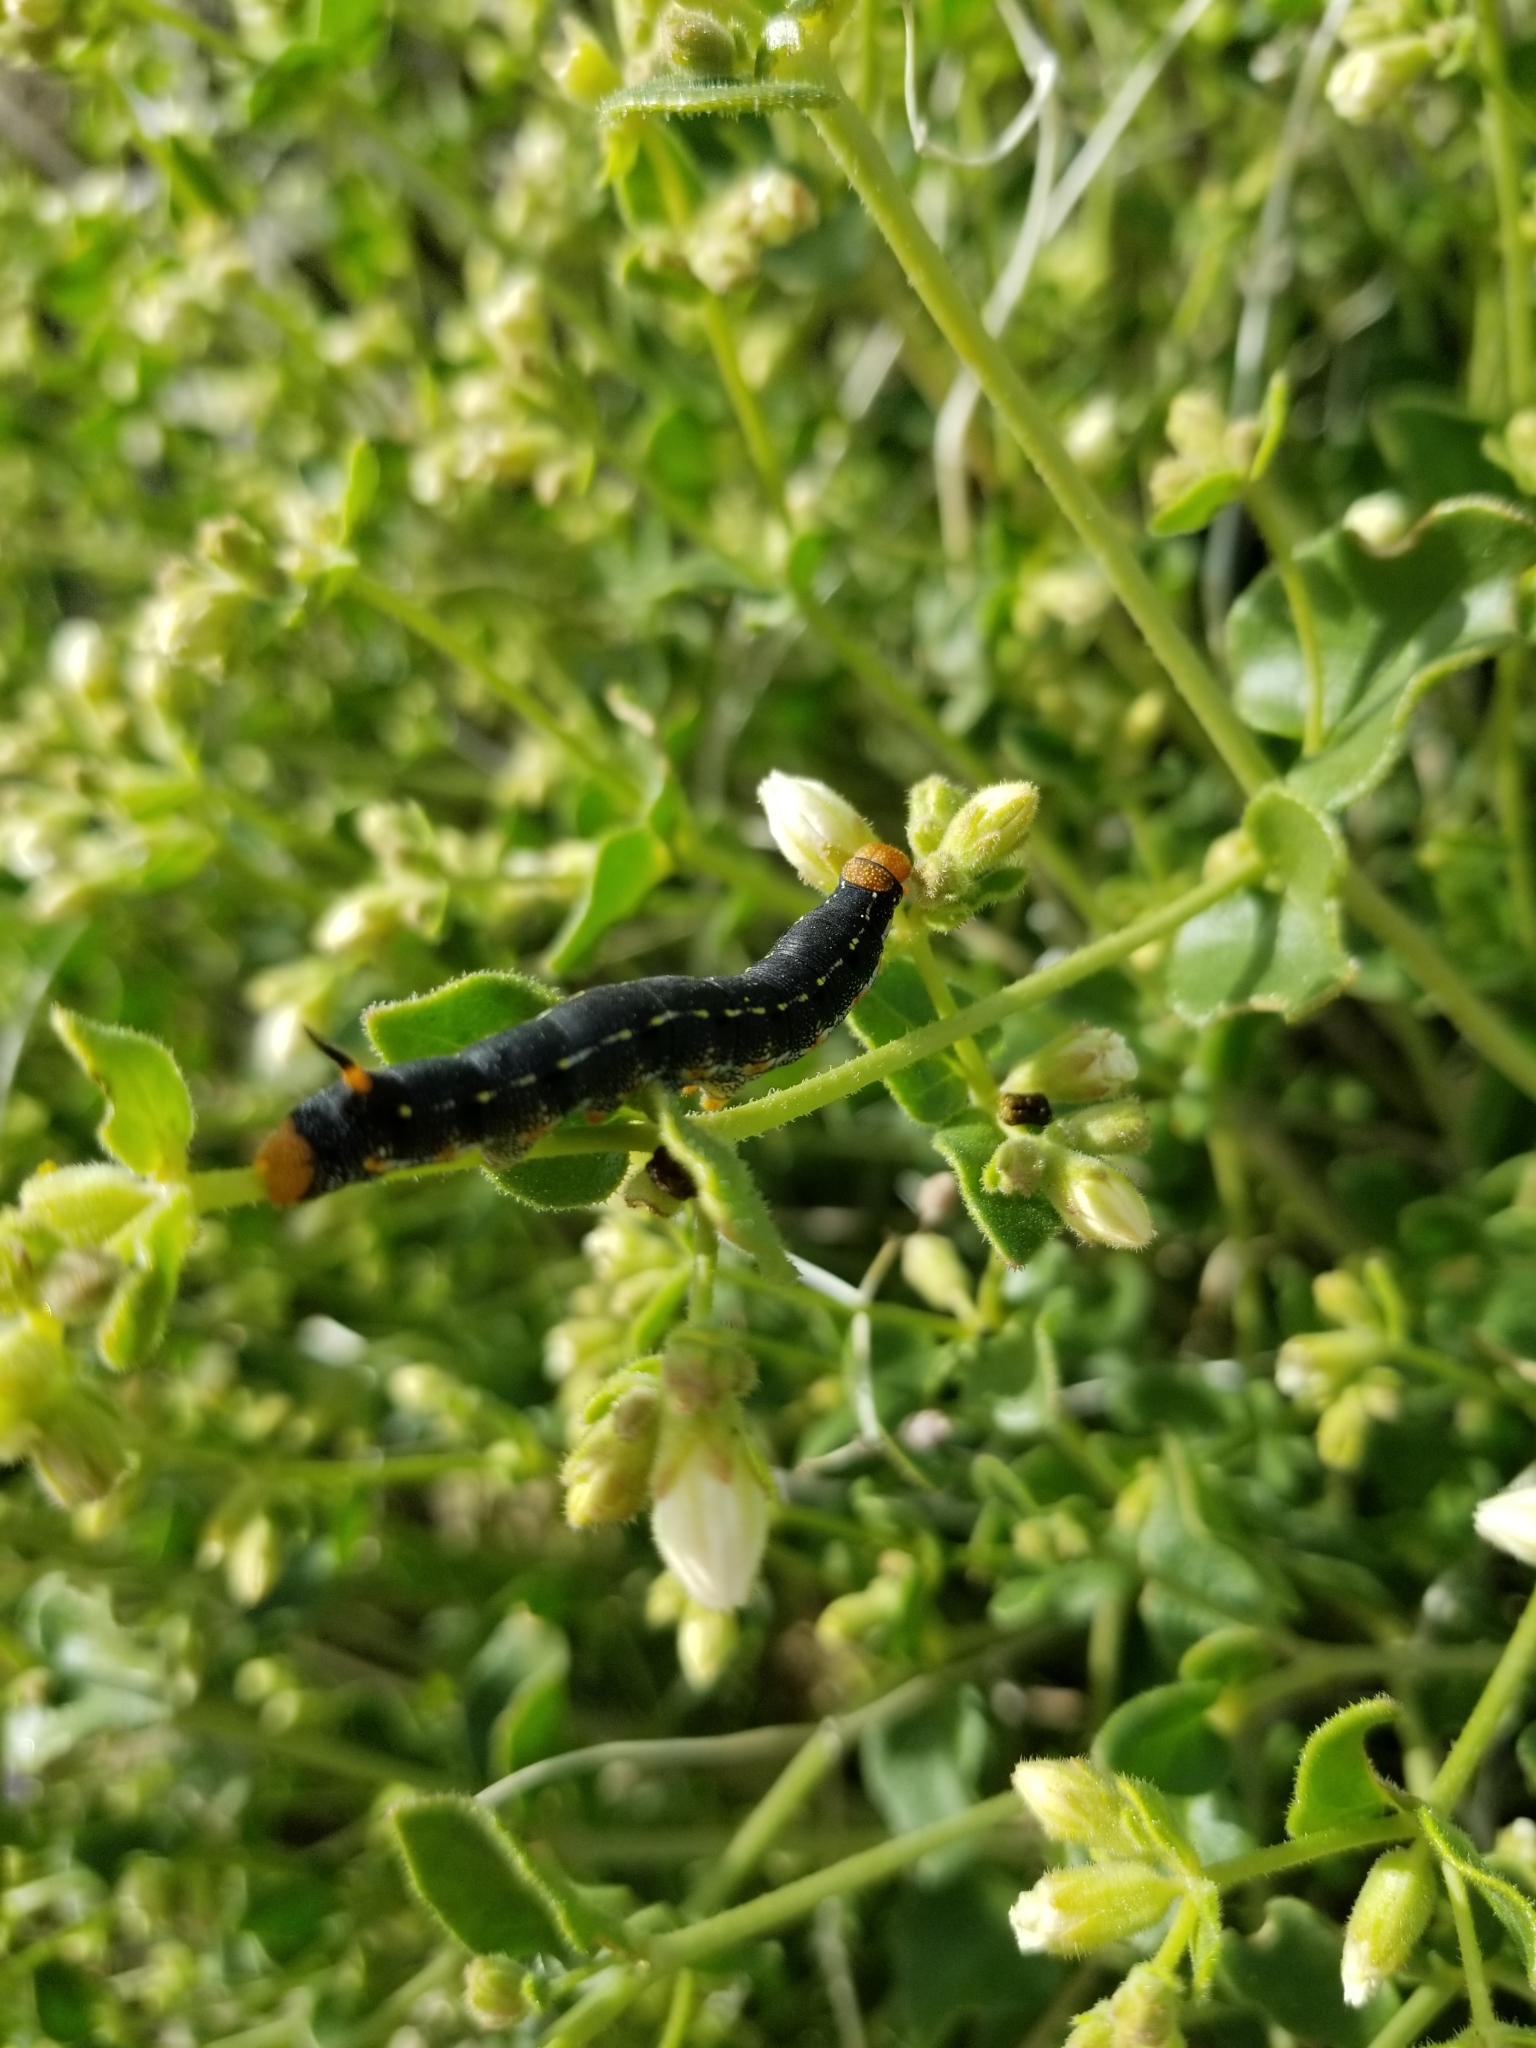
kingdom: Animalia
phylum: Arthropoda
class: Insecta
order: Lepidoptera
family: Sphingidae
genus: Hyles
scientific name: Hyles lineata
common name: White-lined sphinx
